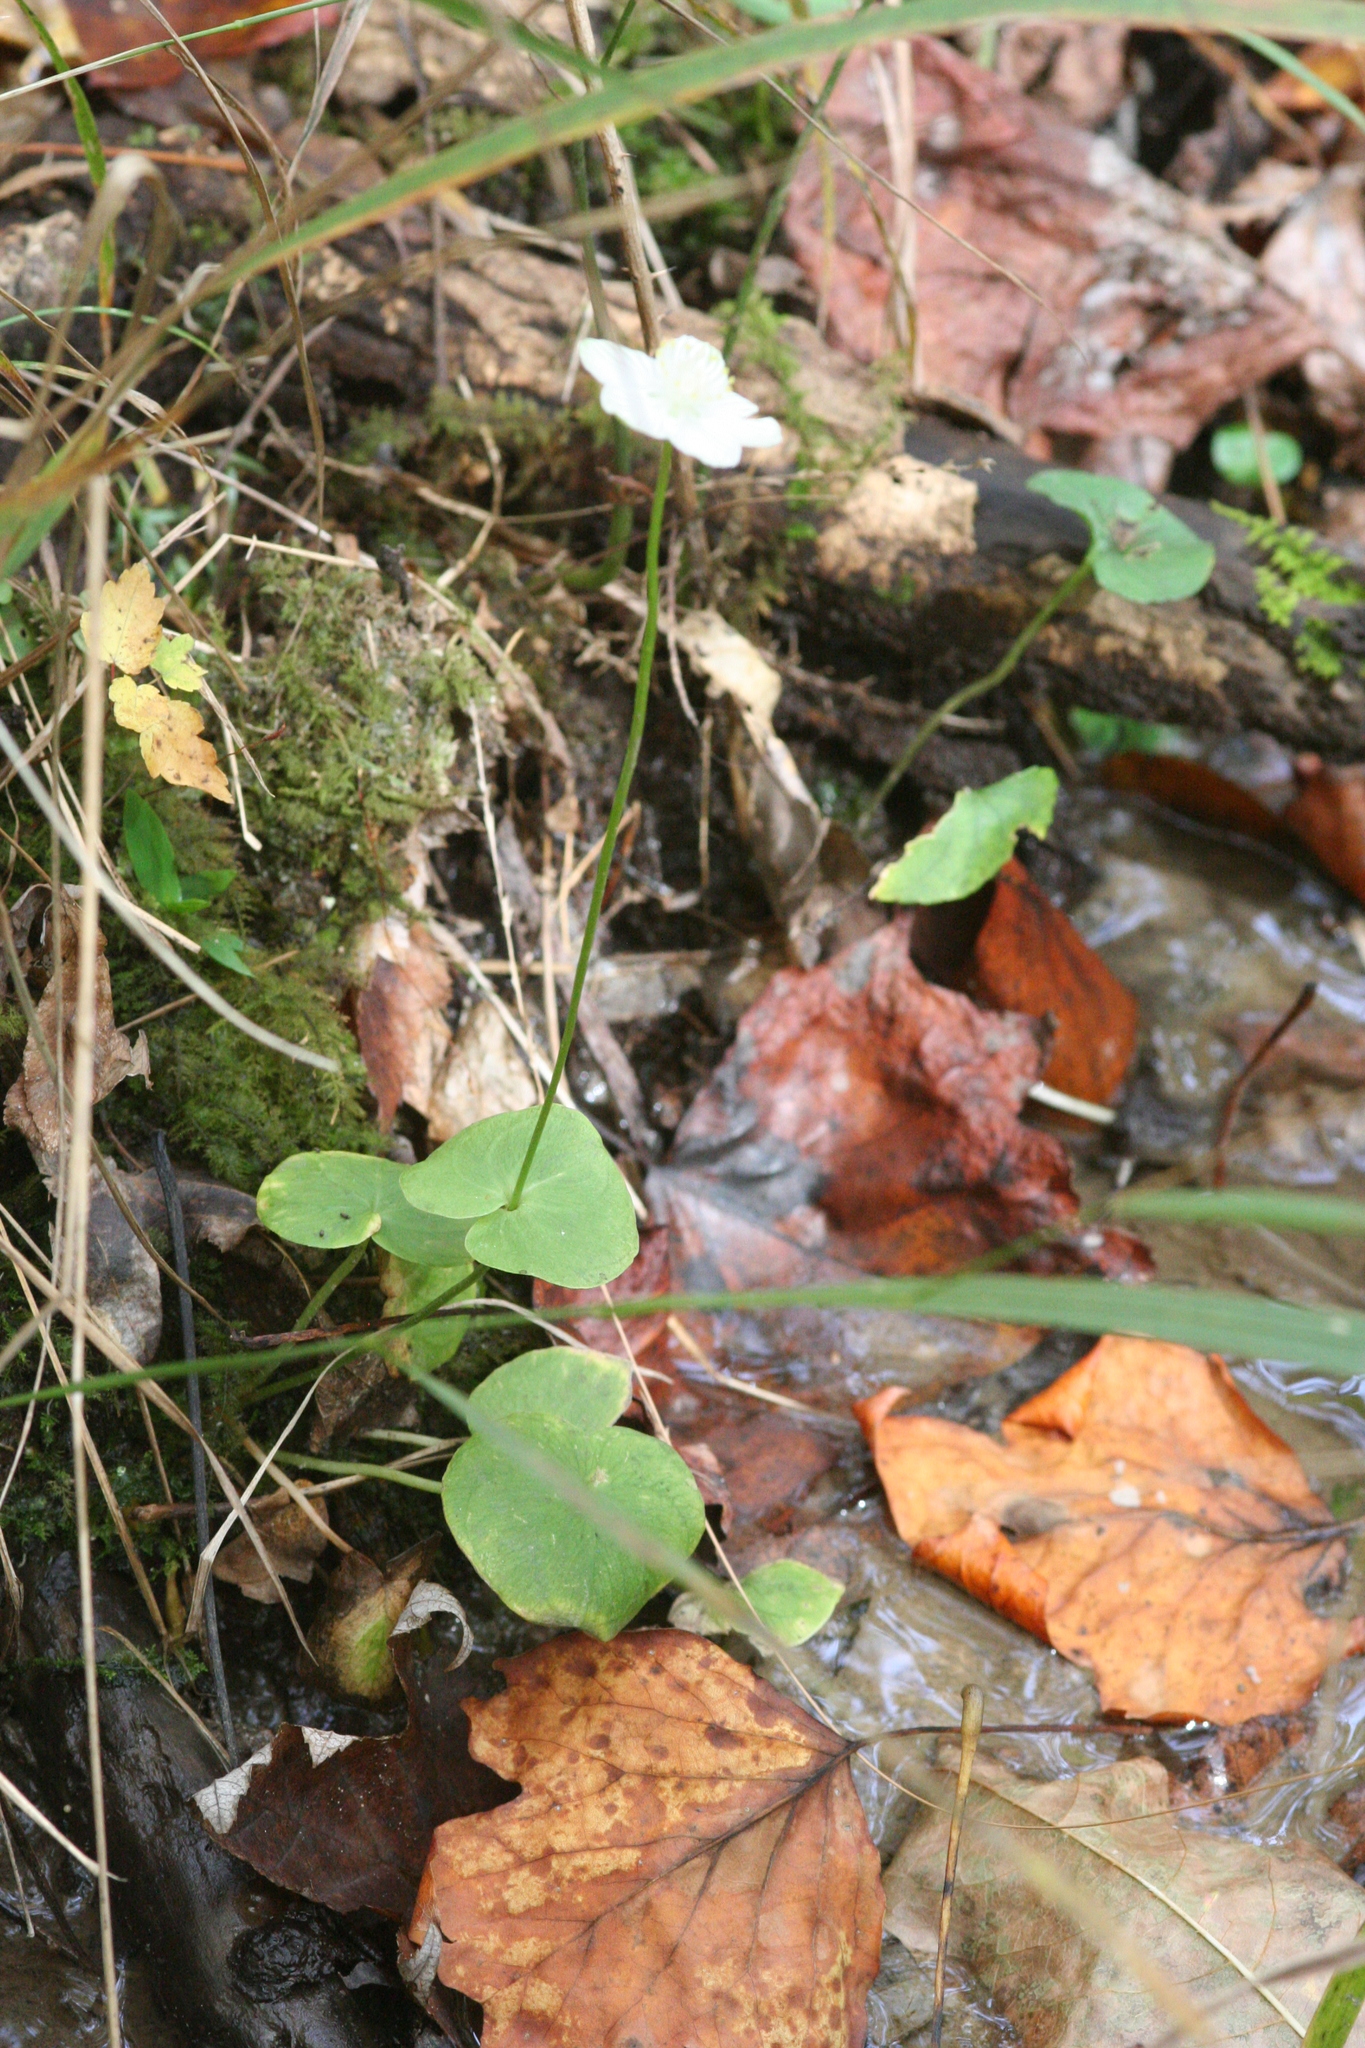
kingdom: Plantae
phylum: Tracheophyta
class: Magnoliopsida
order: Celastrales
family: Parnassiaceae
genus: Parnassia
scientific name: Parnassia asarifolia
